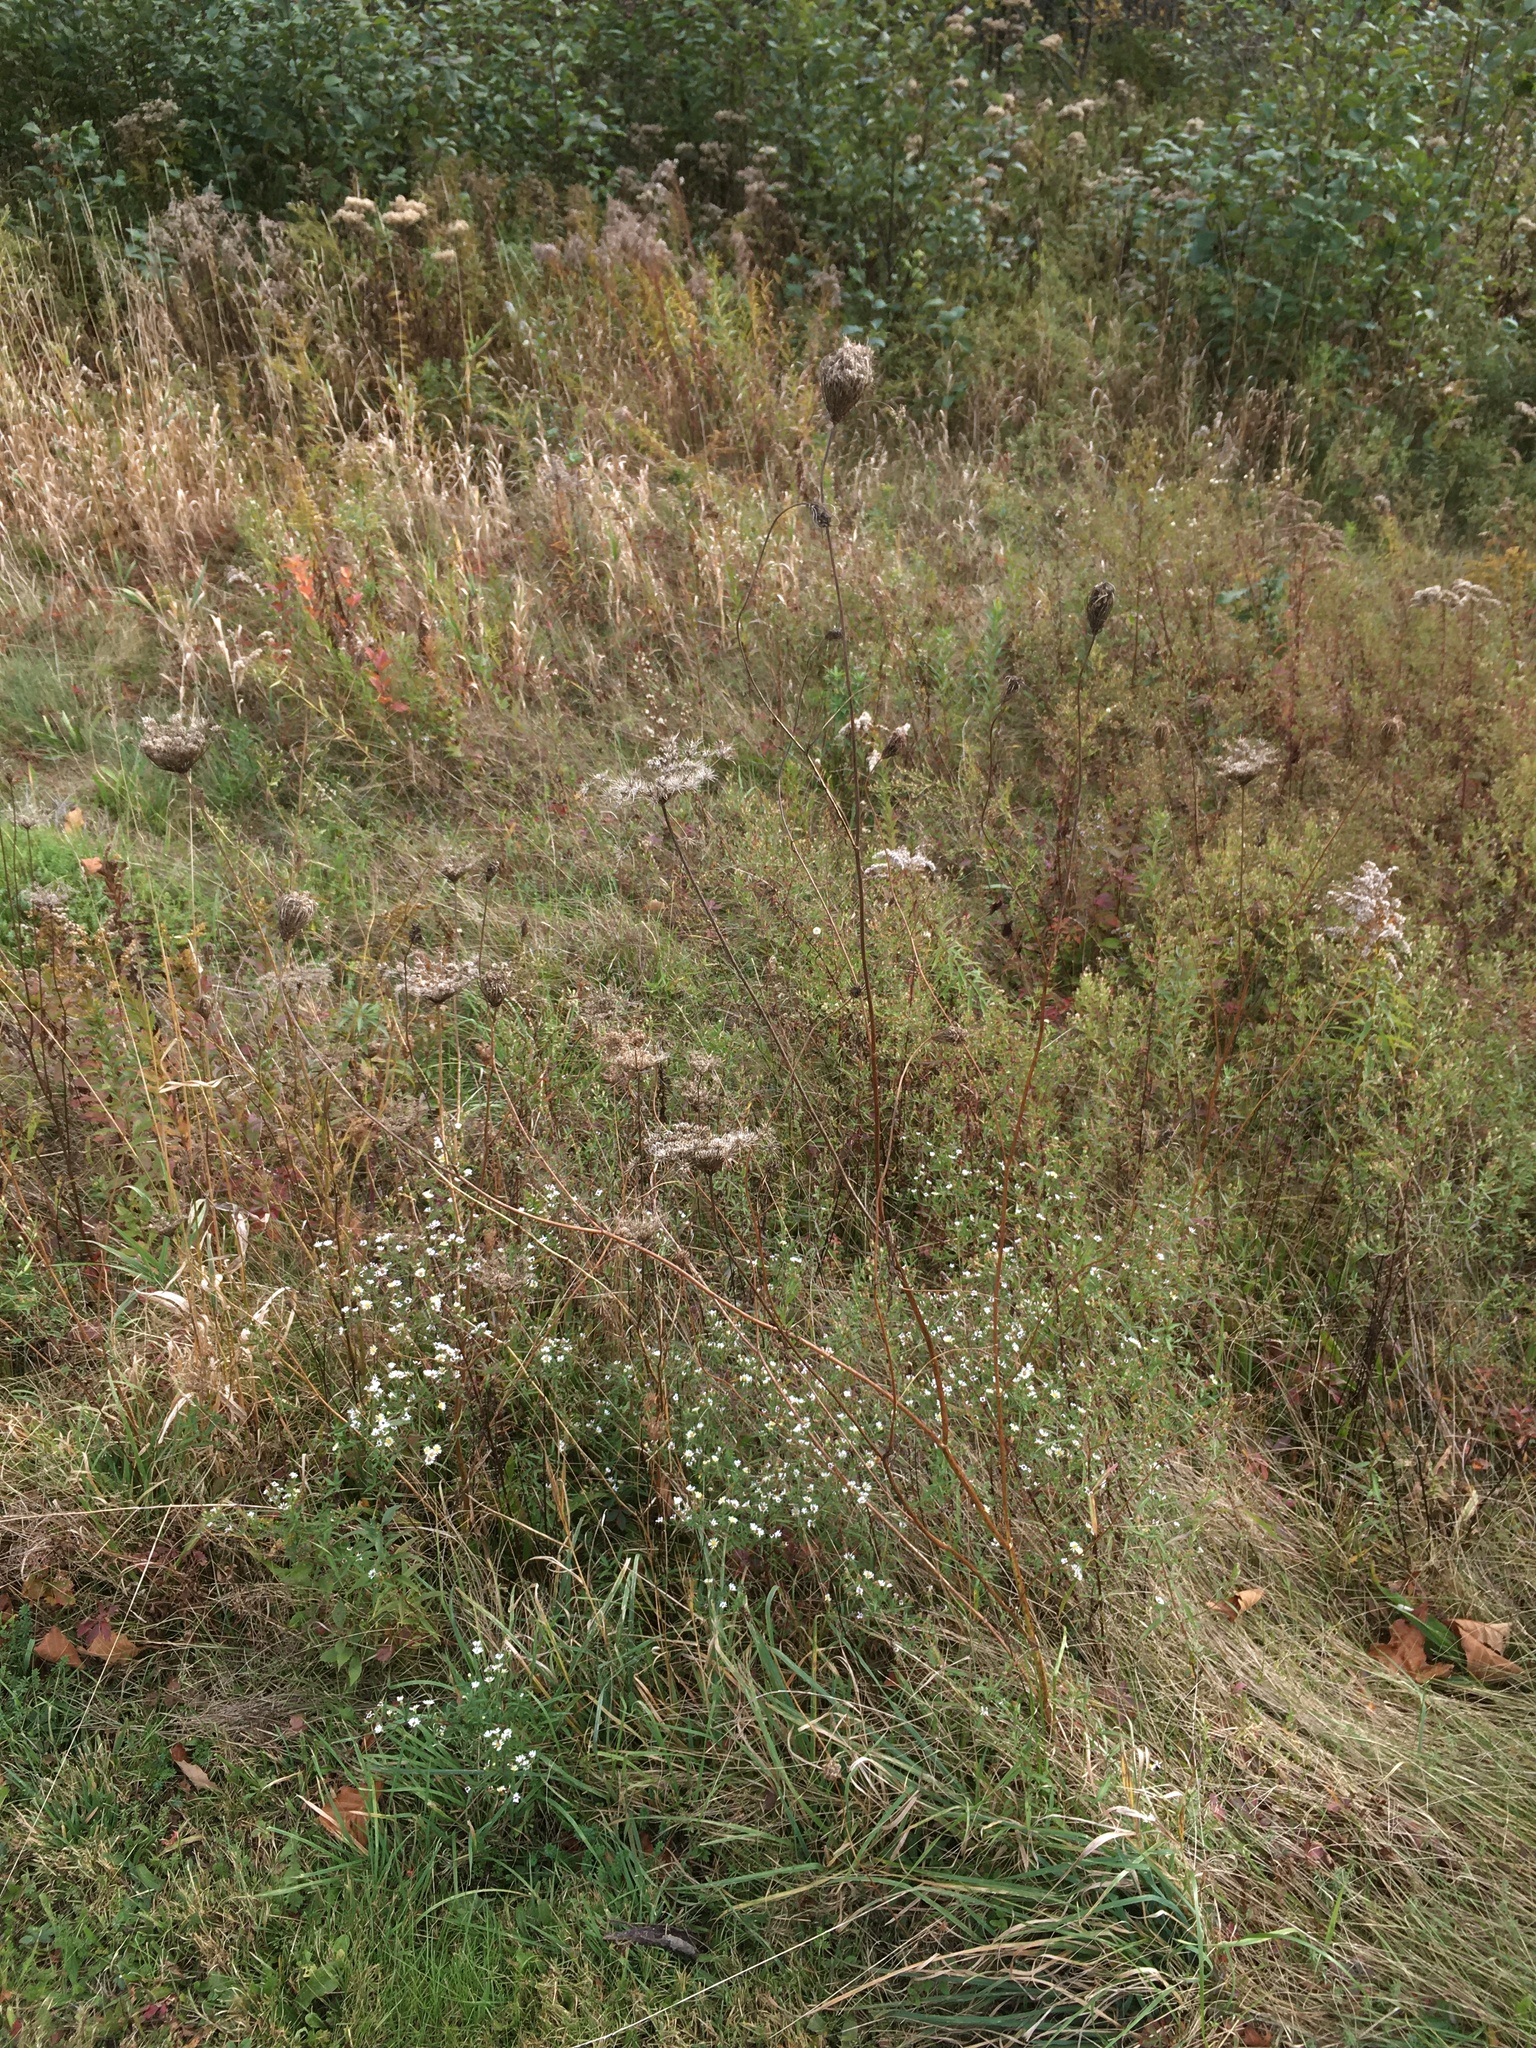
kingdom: Plantae
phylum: Tracheophyta
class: Magnoliopsida
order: Apiales
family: Apiaceae
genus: Daucus
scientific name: Daucus carota
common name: Wild carrot
